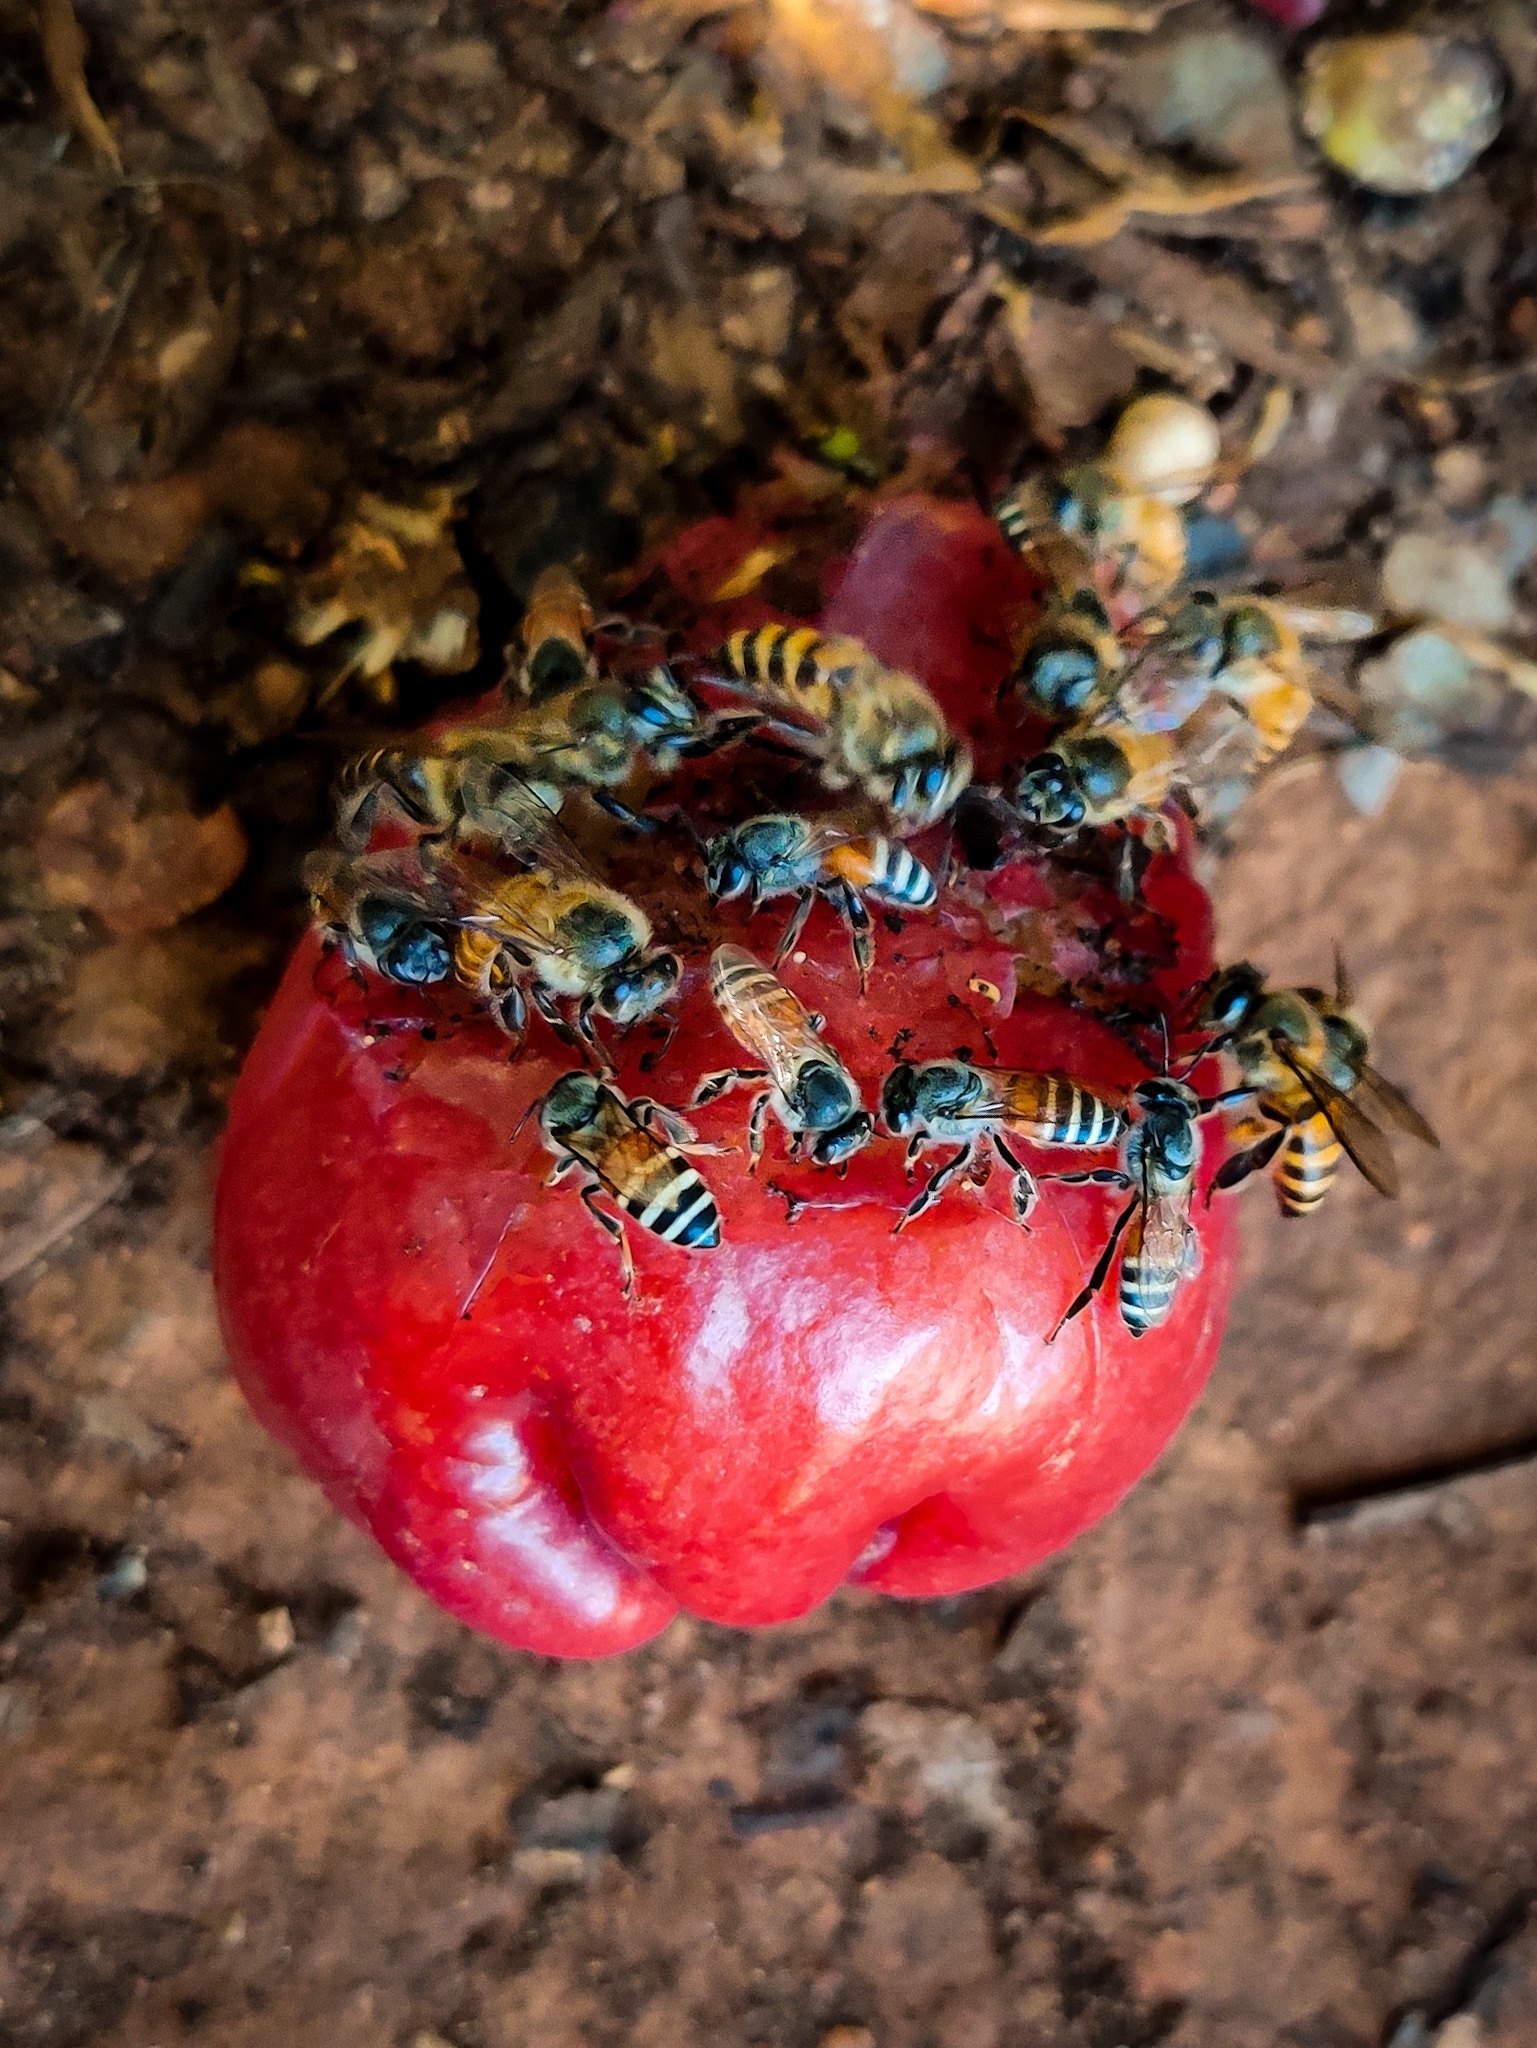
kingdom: Animalia
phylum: Arthropoda
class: Insecta
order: Hymenoptera
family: Apidae
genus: Apis
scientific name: Apis florea
